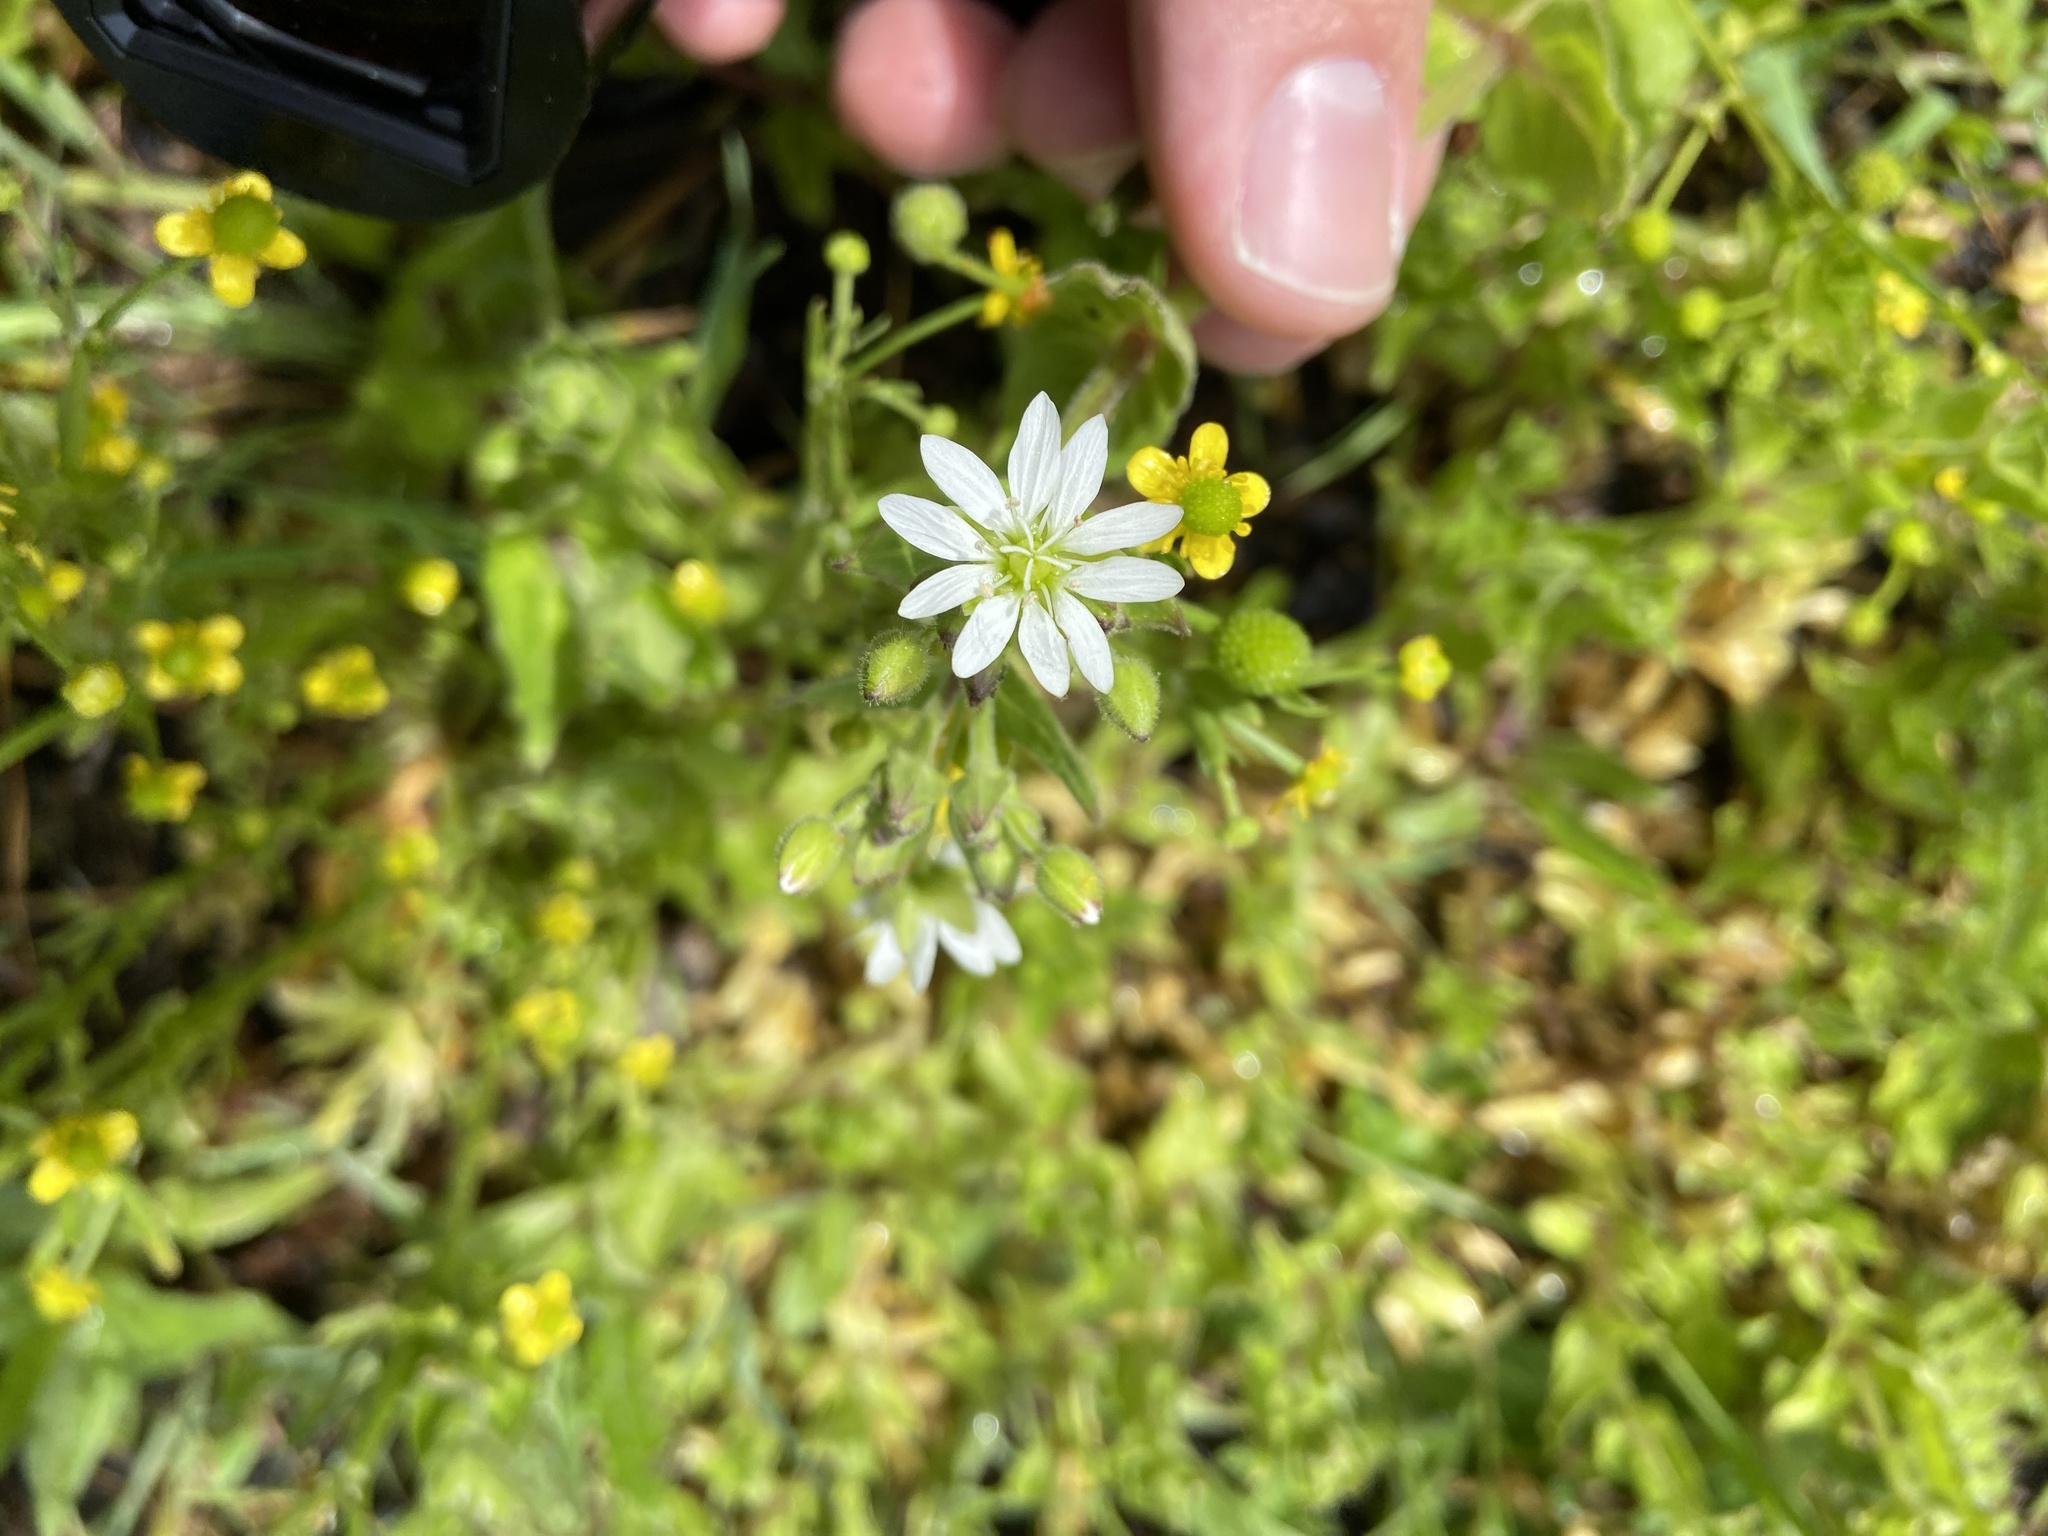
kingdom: Plantae
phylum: Tracheophyta
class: Magnoliopsida
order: Caryophyllales
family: Caryophyllaceae
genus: Stellaria
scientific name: Stellaria aquatica
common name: Water chickweed
